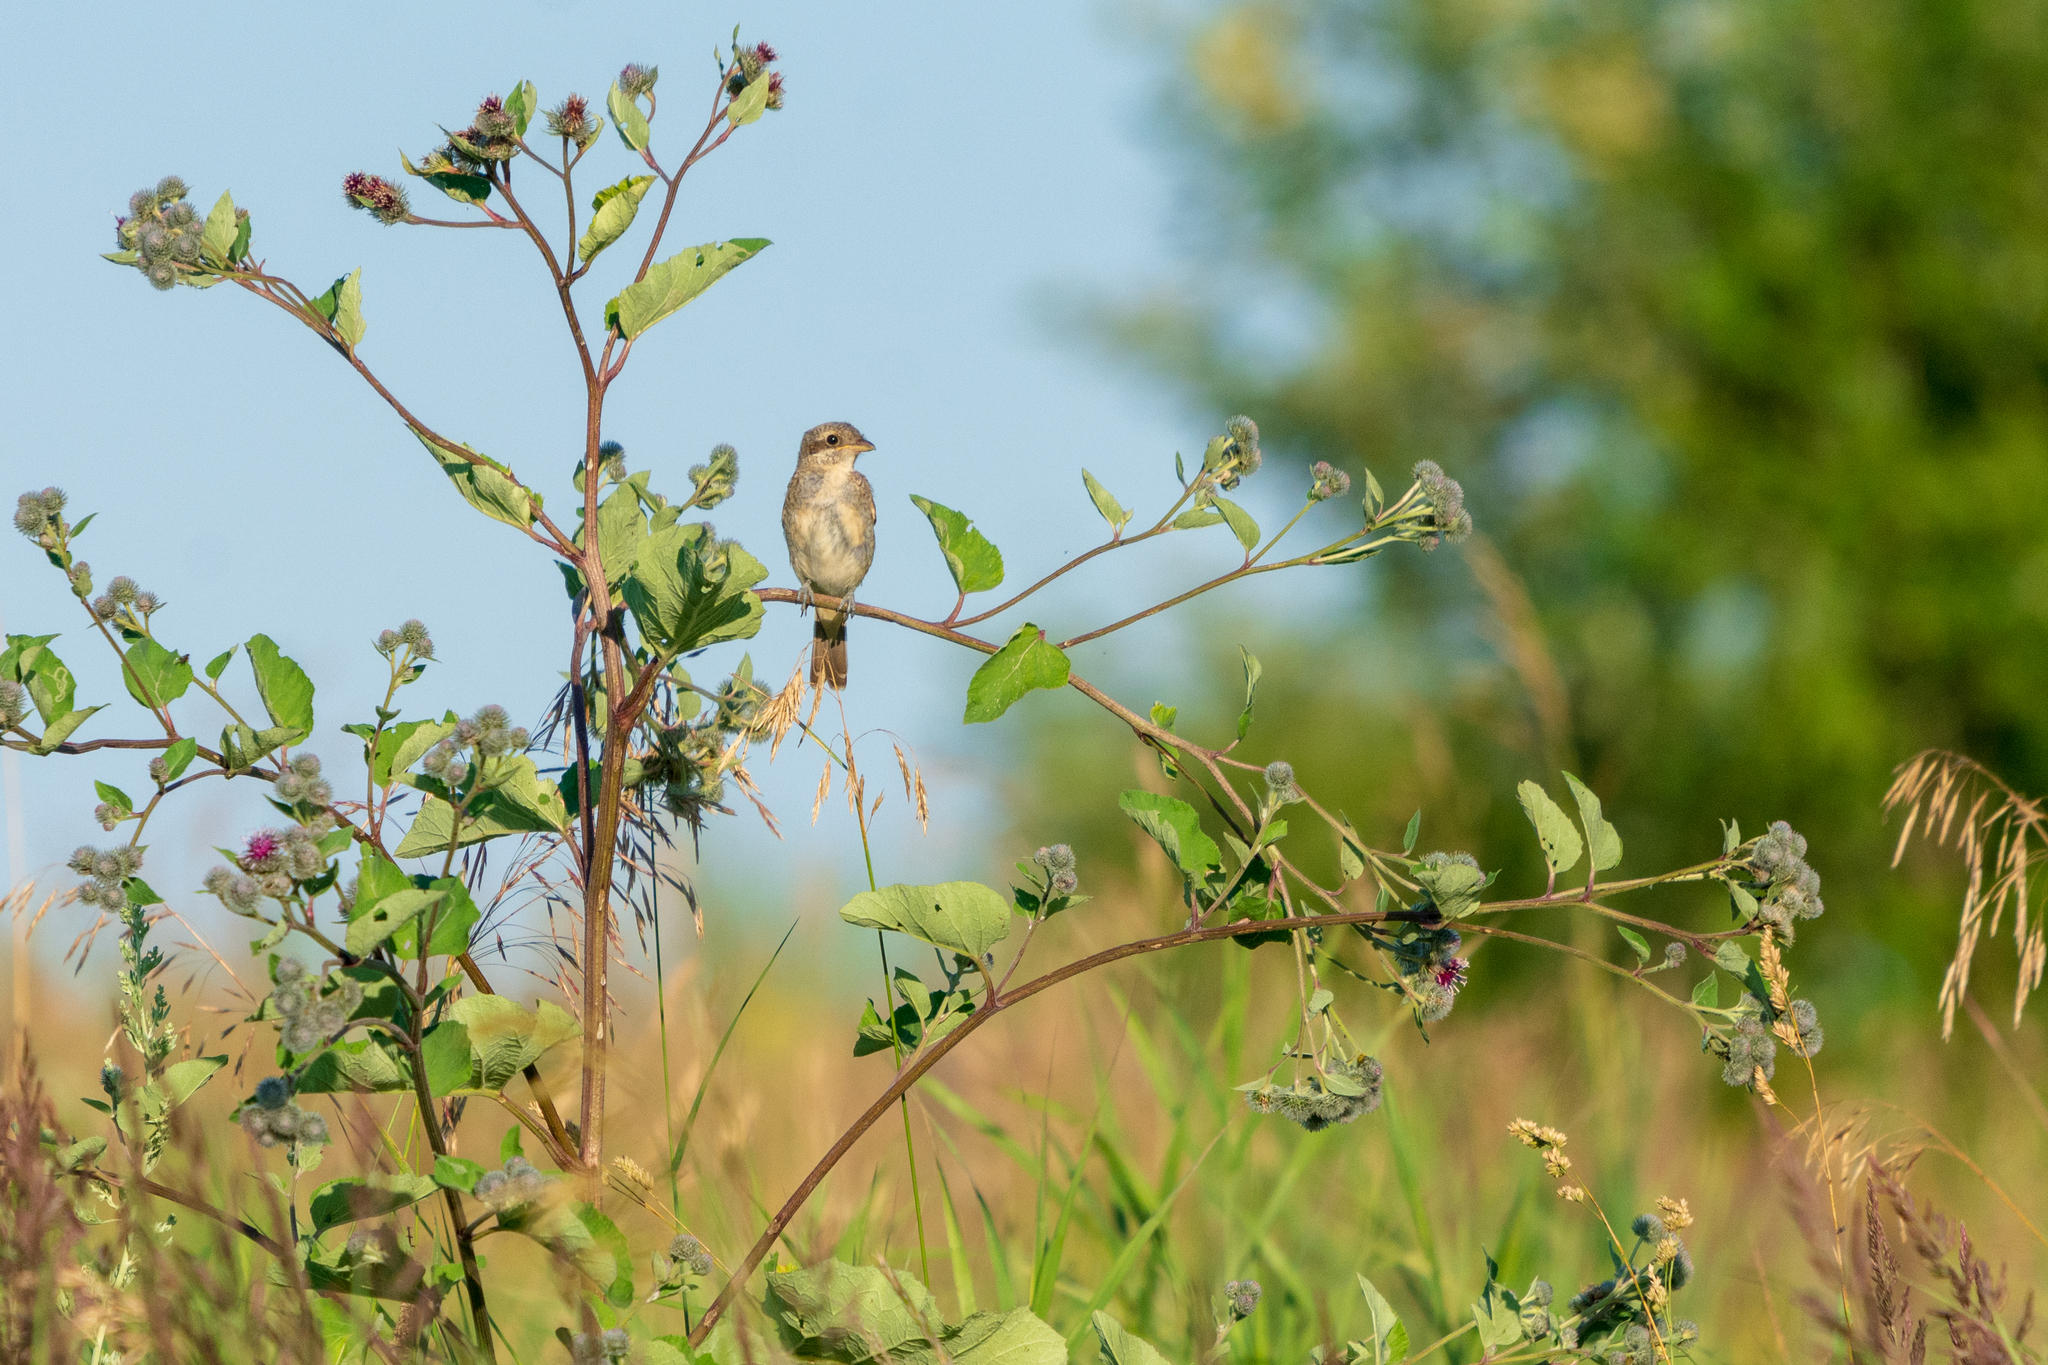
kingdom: Animalia
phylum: Chordata
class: Aves
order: Passeriformes
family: Laniidae
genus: Lanius
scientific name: Lanius collurio
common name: Red-backed shrike
